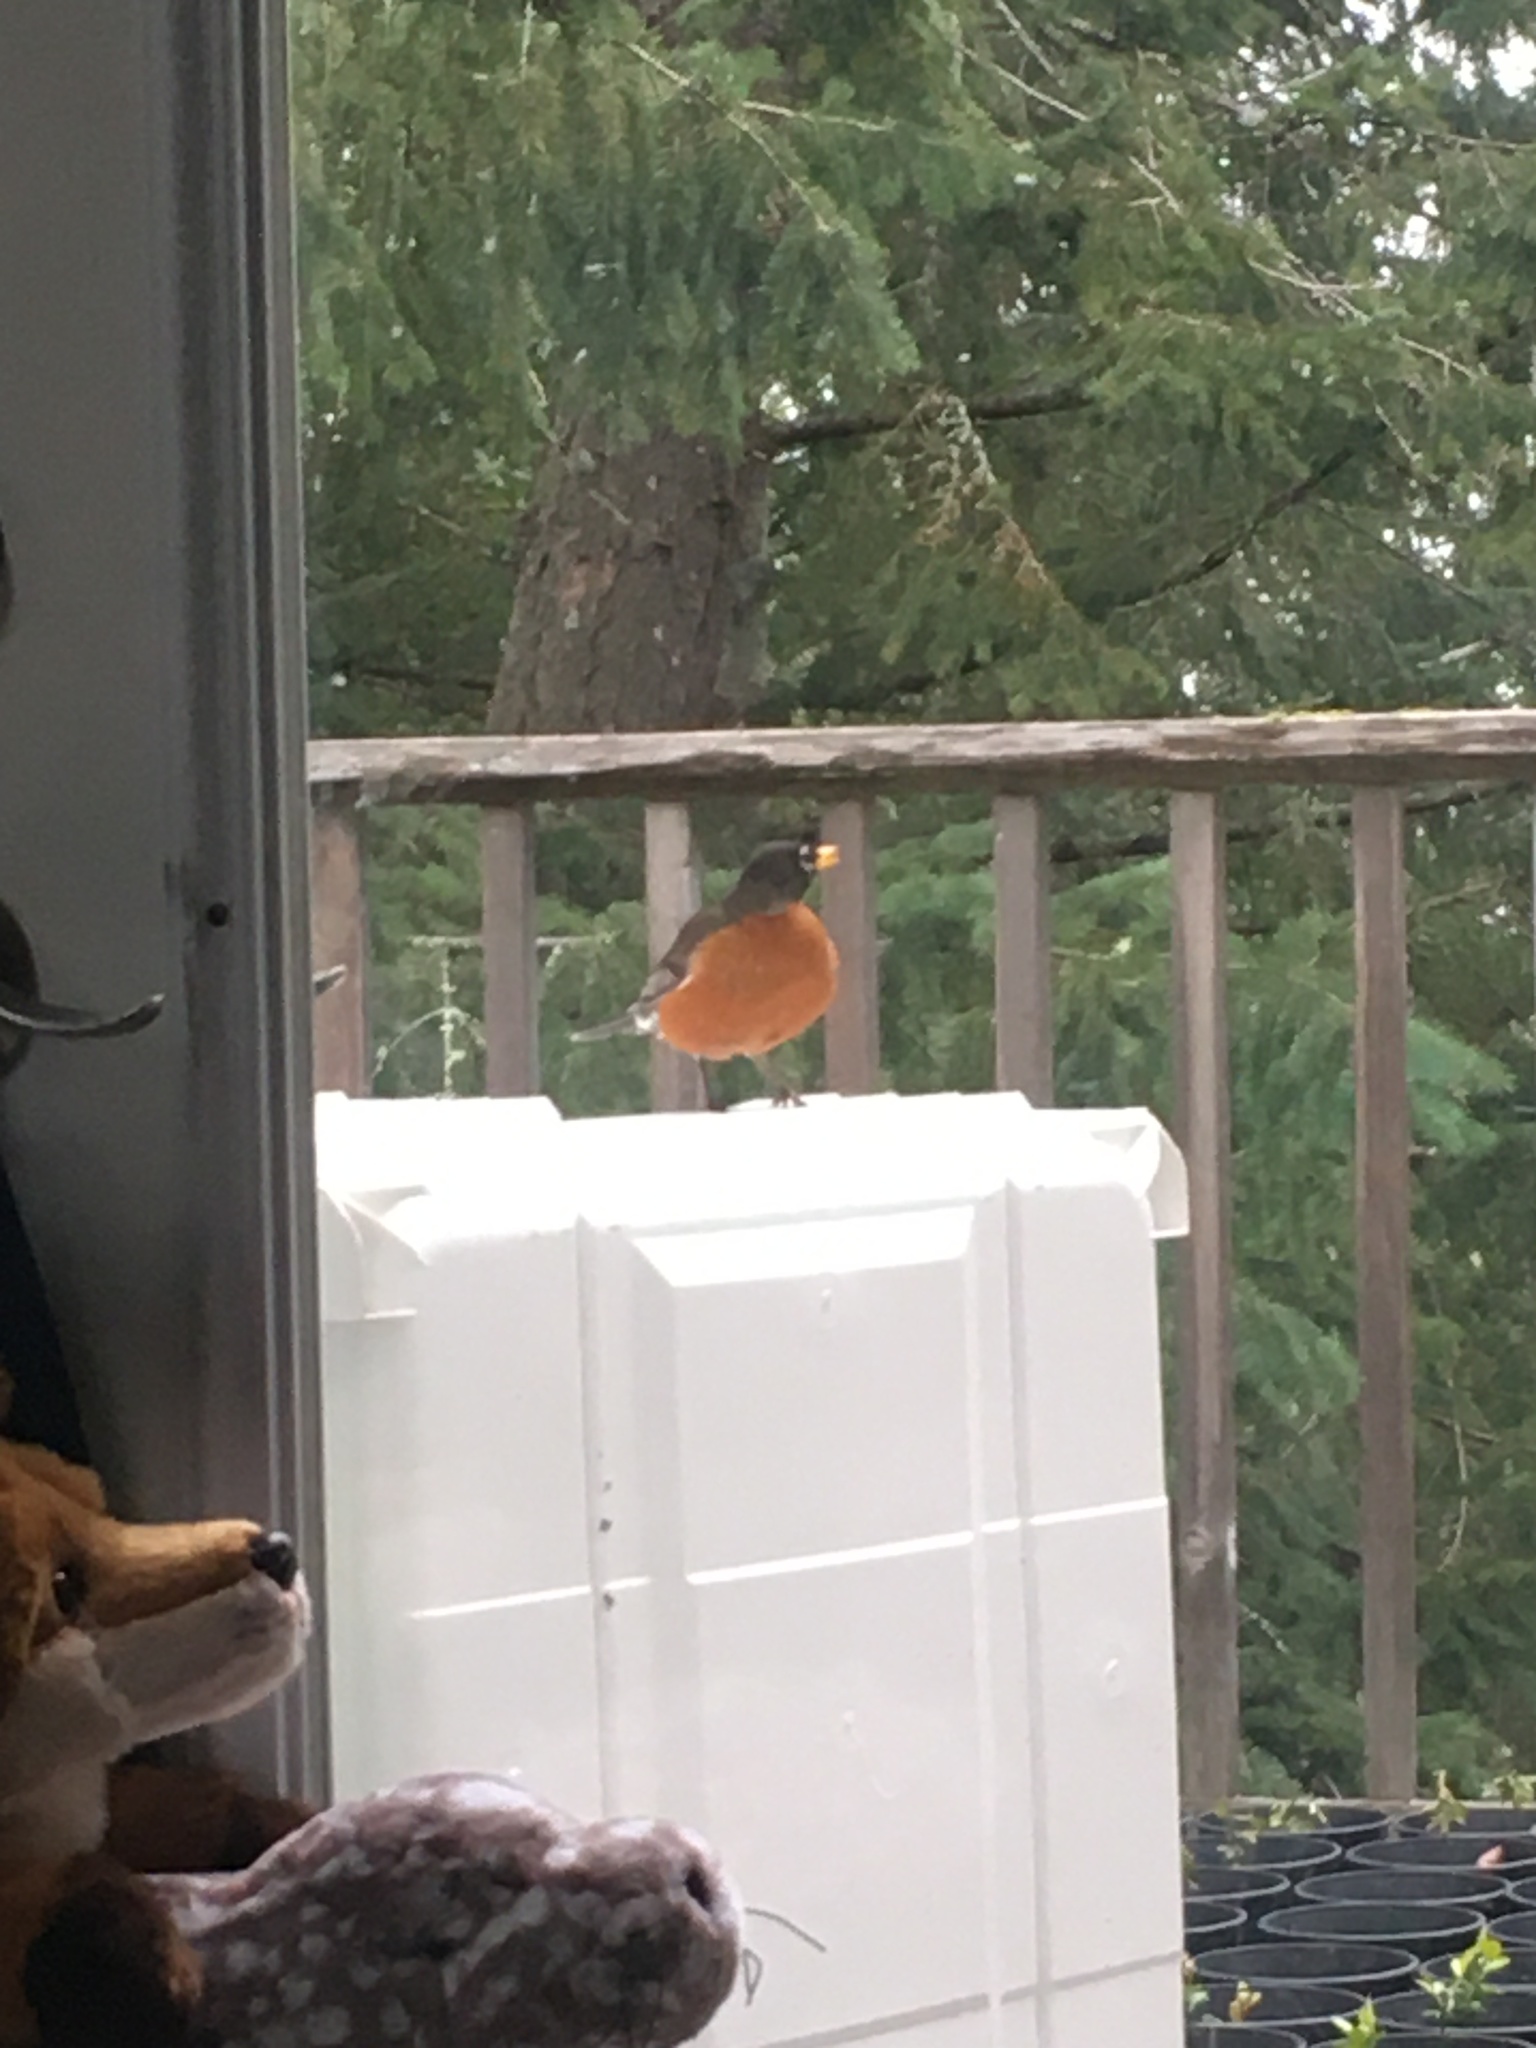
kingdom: Animalia
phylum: Chordata
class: Aves
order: Passeriformes
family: Turdidae
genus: Turdus
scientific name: Turdus migratorius
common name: American robin
